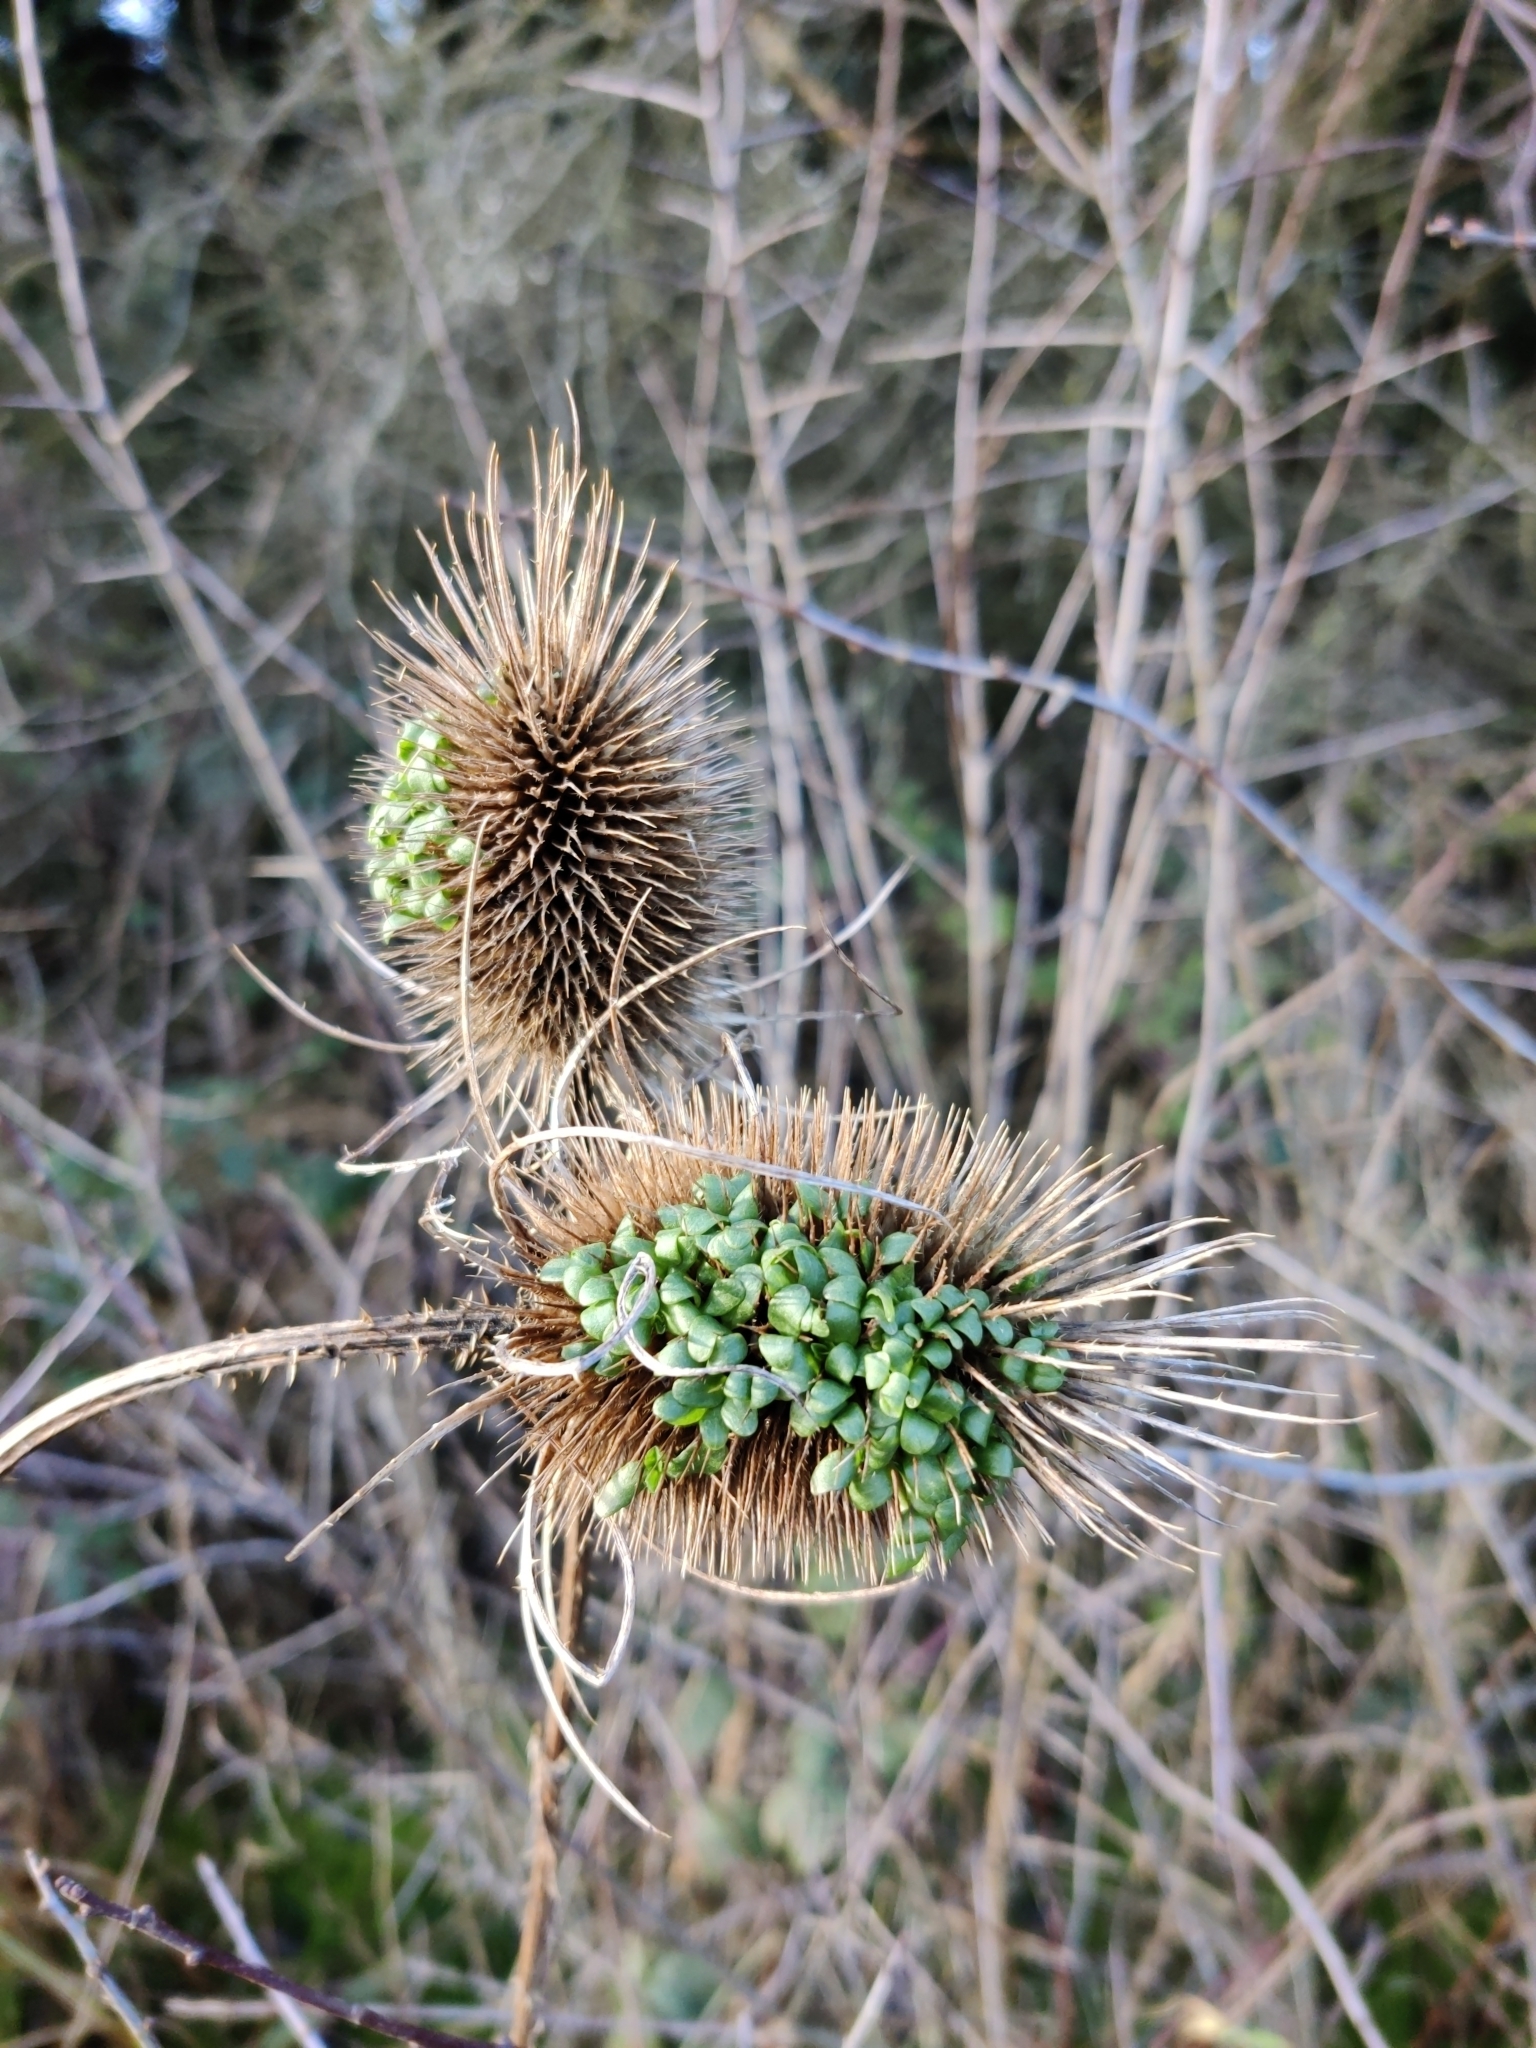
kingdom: Plantae
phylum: Tracheophyta
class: Magnoliopsida
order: Dipsacales
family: Caprifoliaceae
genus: Dipsacus
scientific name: Dipsacus fullonum
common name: Teasel
